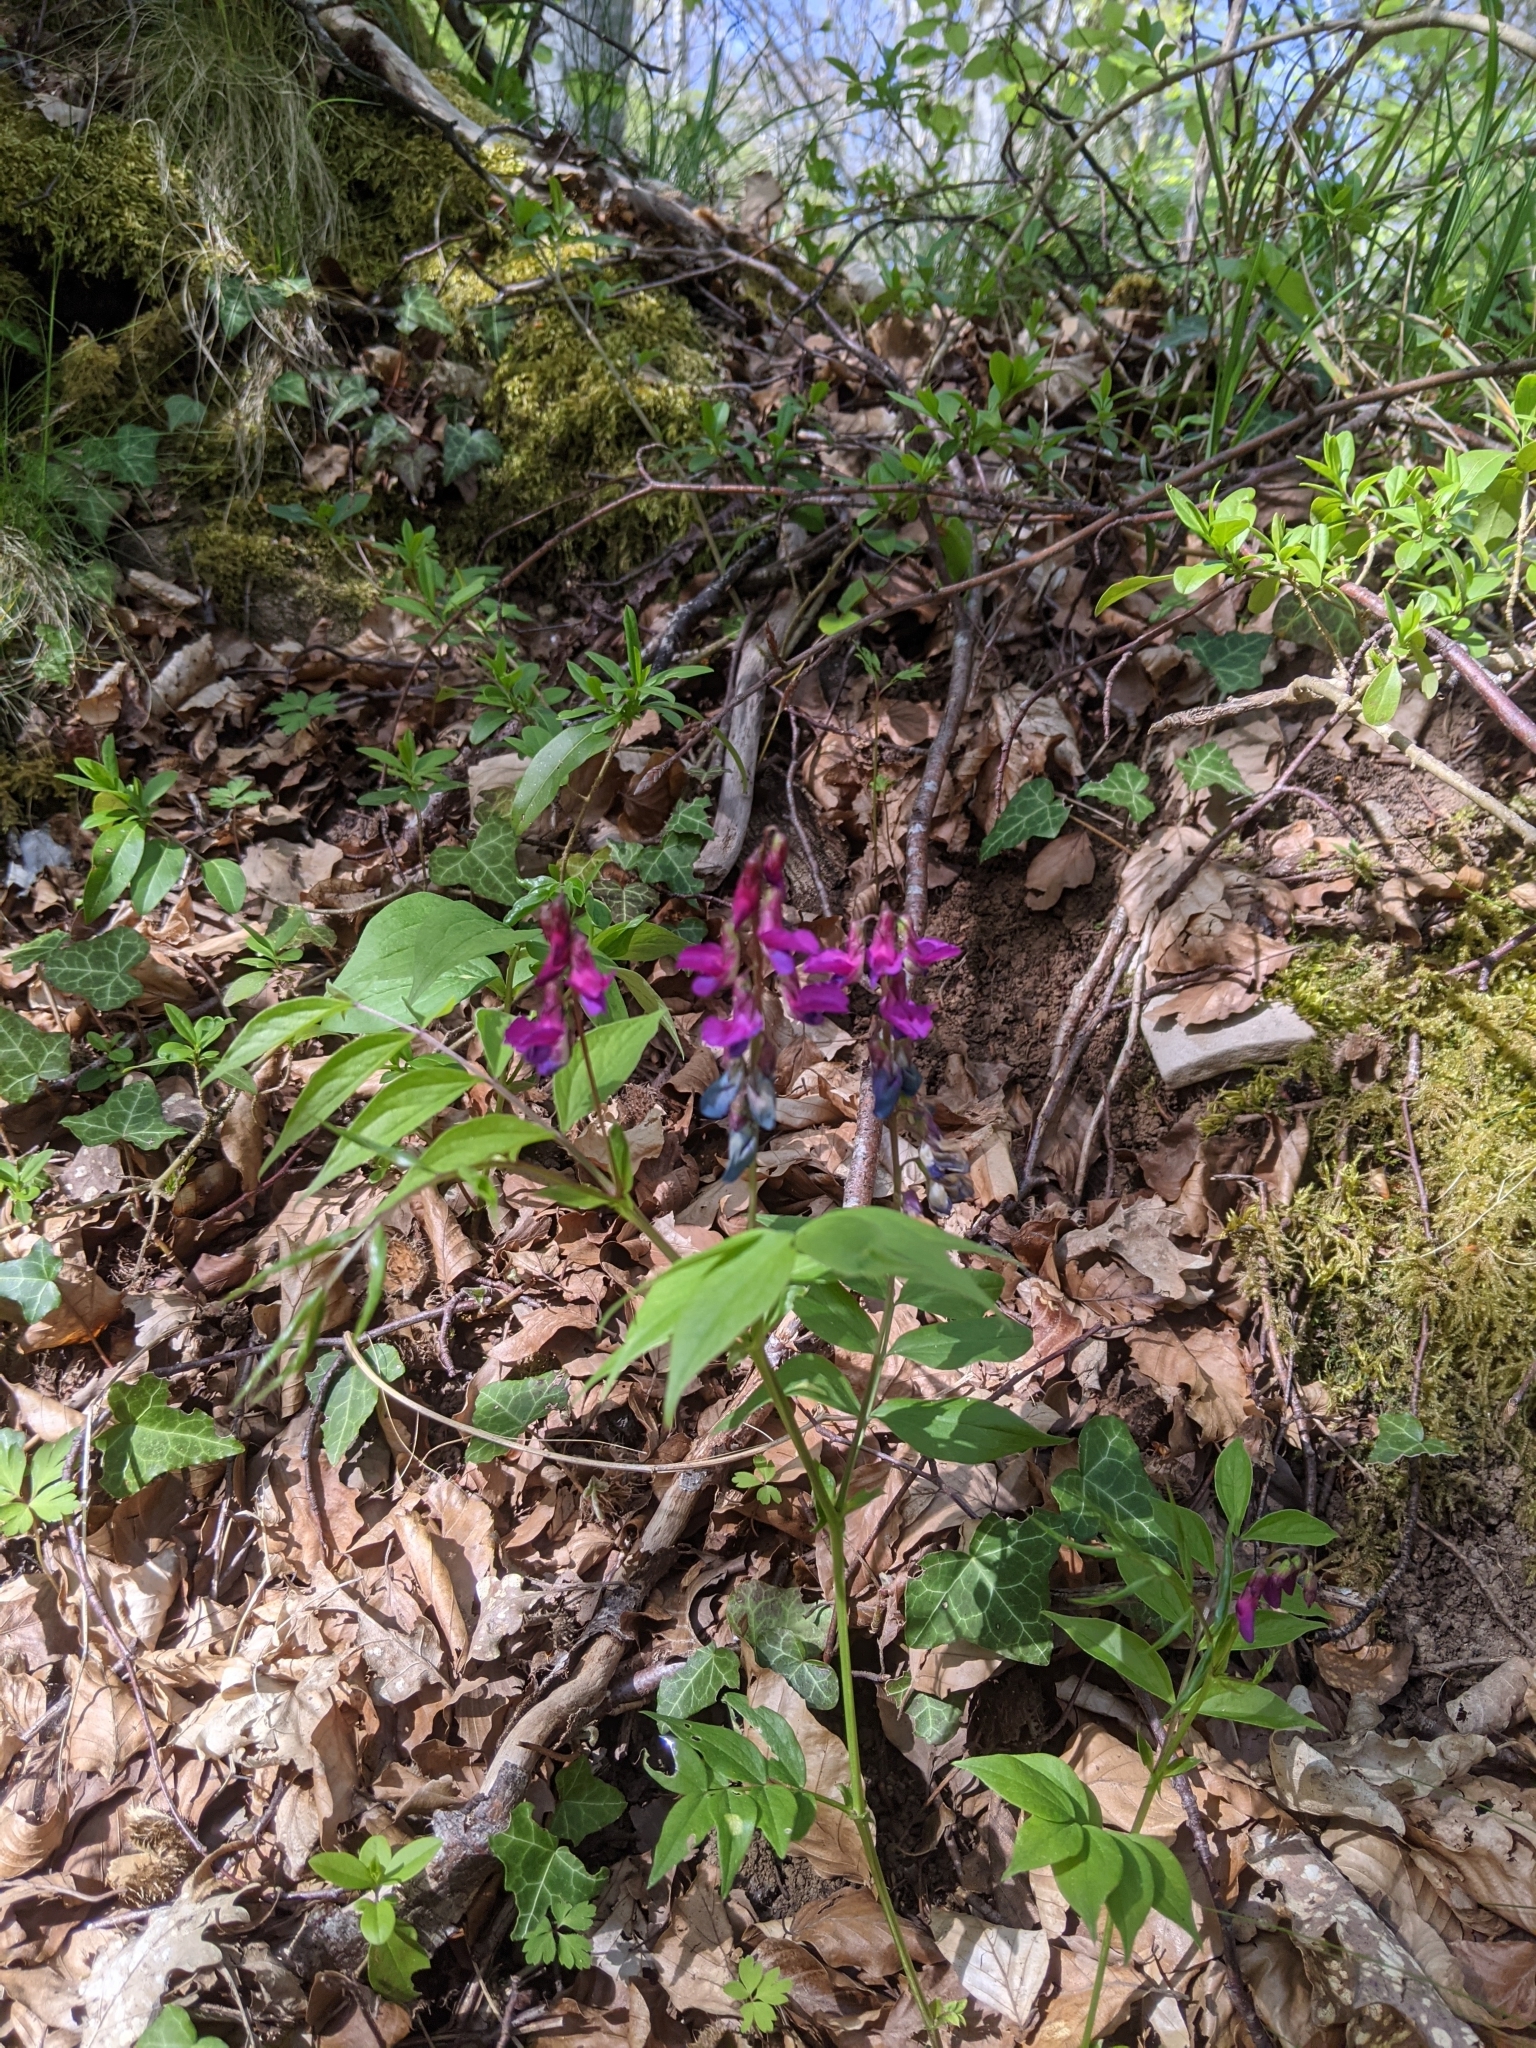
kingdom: Plantae
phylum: Tracheophyta
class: Magnoliopsida
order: Fabales
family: Fabaceae
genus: Lathyrus
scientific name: Lathyrus vernus
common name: Spring pea
